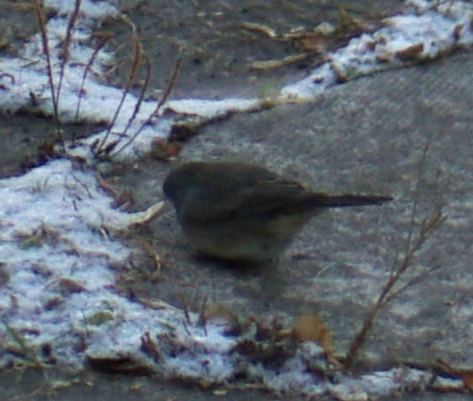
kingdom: Animalia
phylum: Chordata
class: Aves
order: Passeriformes
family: Passerellidae
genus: Junco
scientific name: Junco hyemalis
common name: Dark-eyed junco
